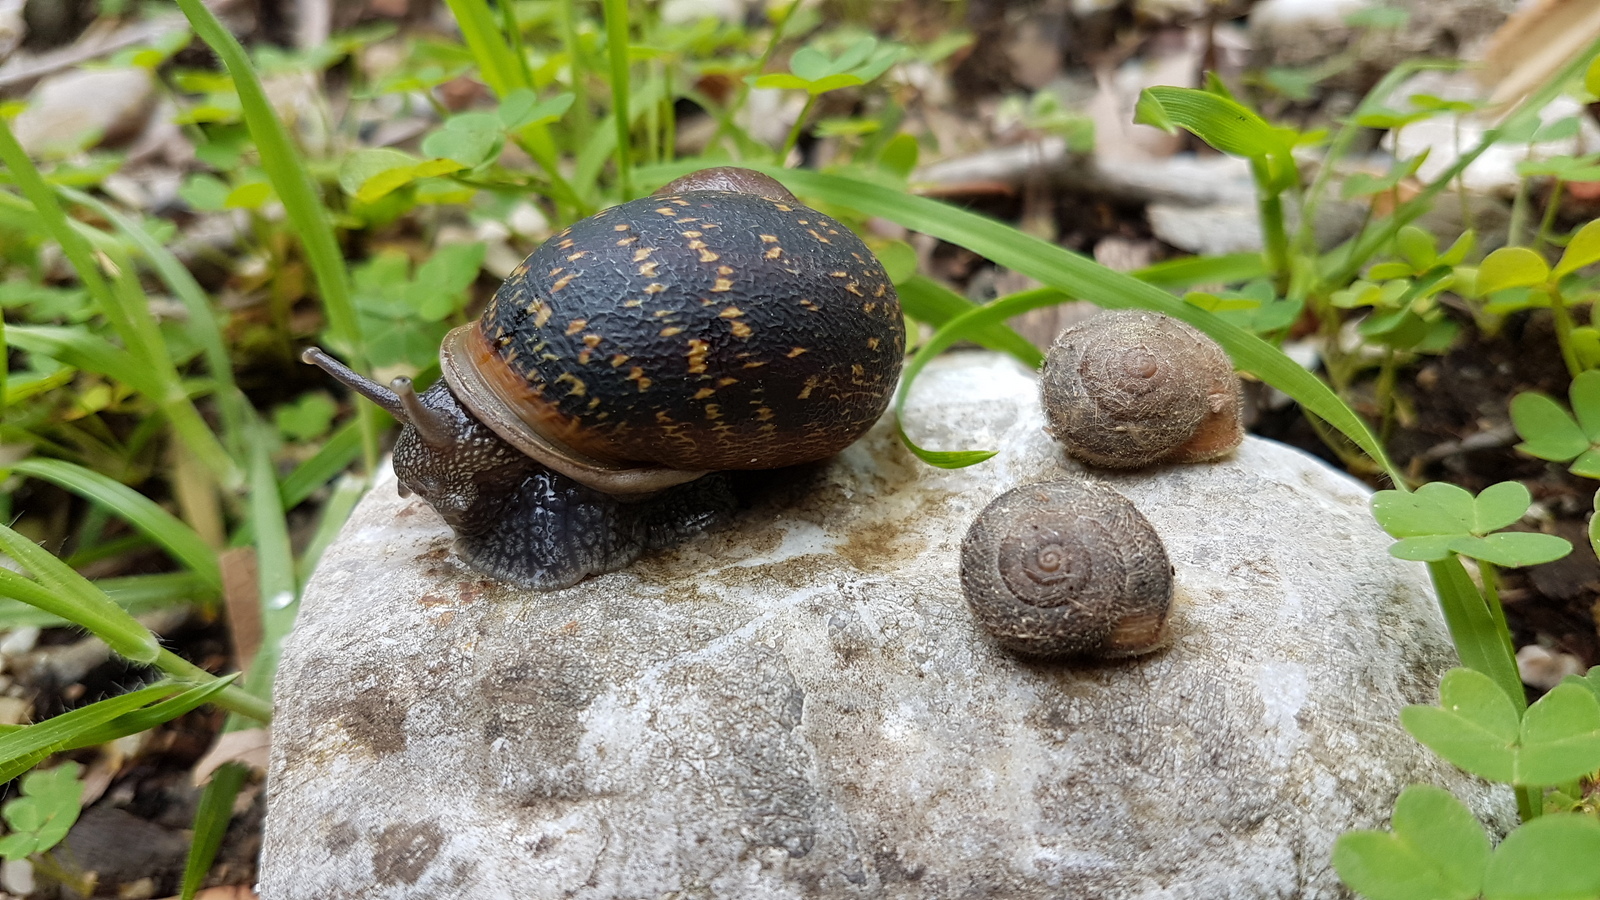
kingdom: Animalia
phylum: Mollusca
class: Gastropoda
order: Stylommatophora
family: Hygromiidae
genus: Metafruticicola
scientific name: Metafruticicola pellita
